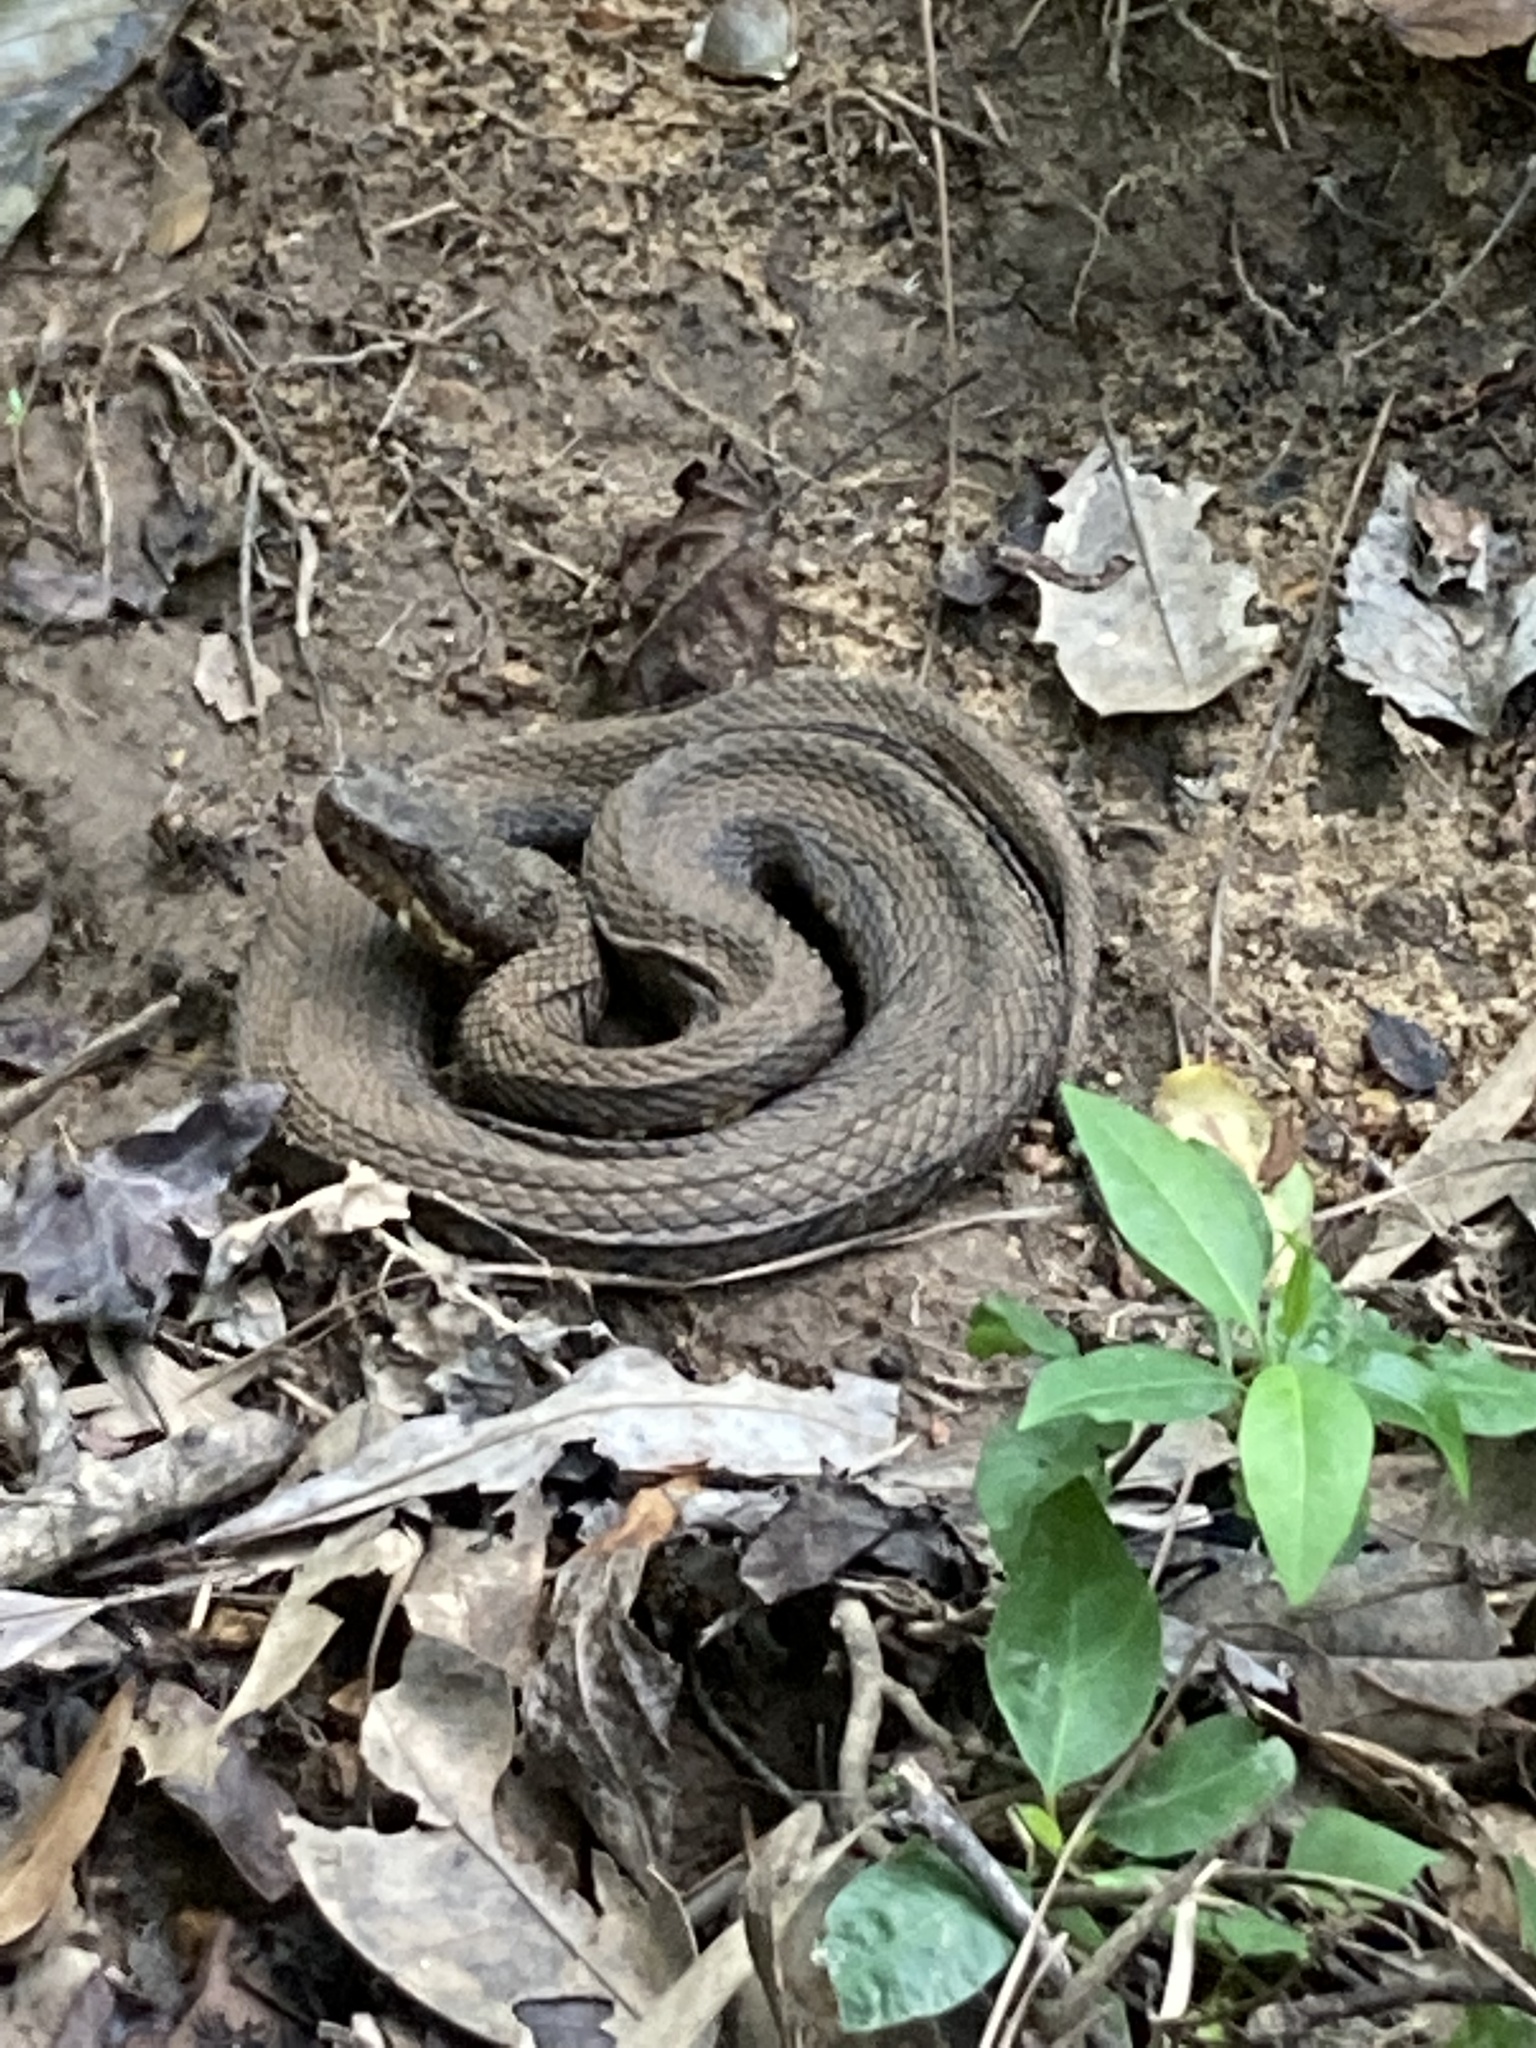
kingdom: Animalia
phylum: Chordata
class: Squamata
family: Viperidae
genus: Agkistrodon
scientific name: Agkistrodon piscivorus
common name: Cottonmouth
